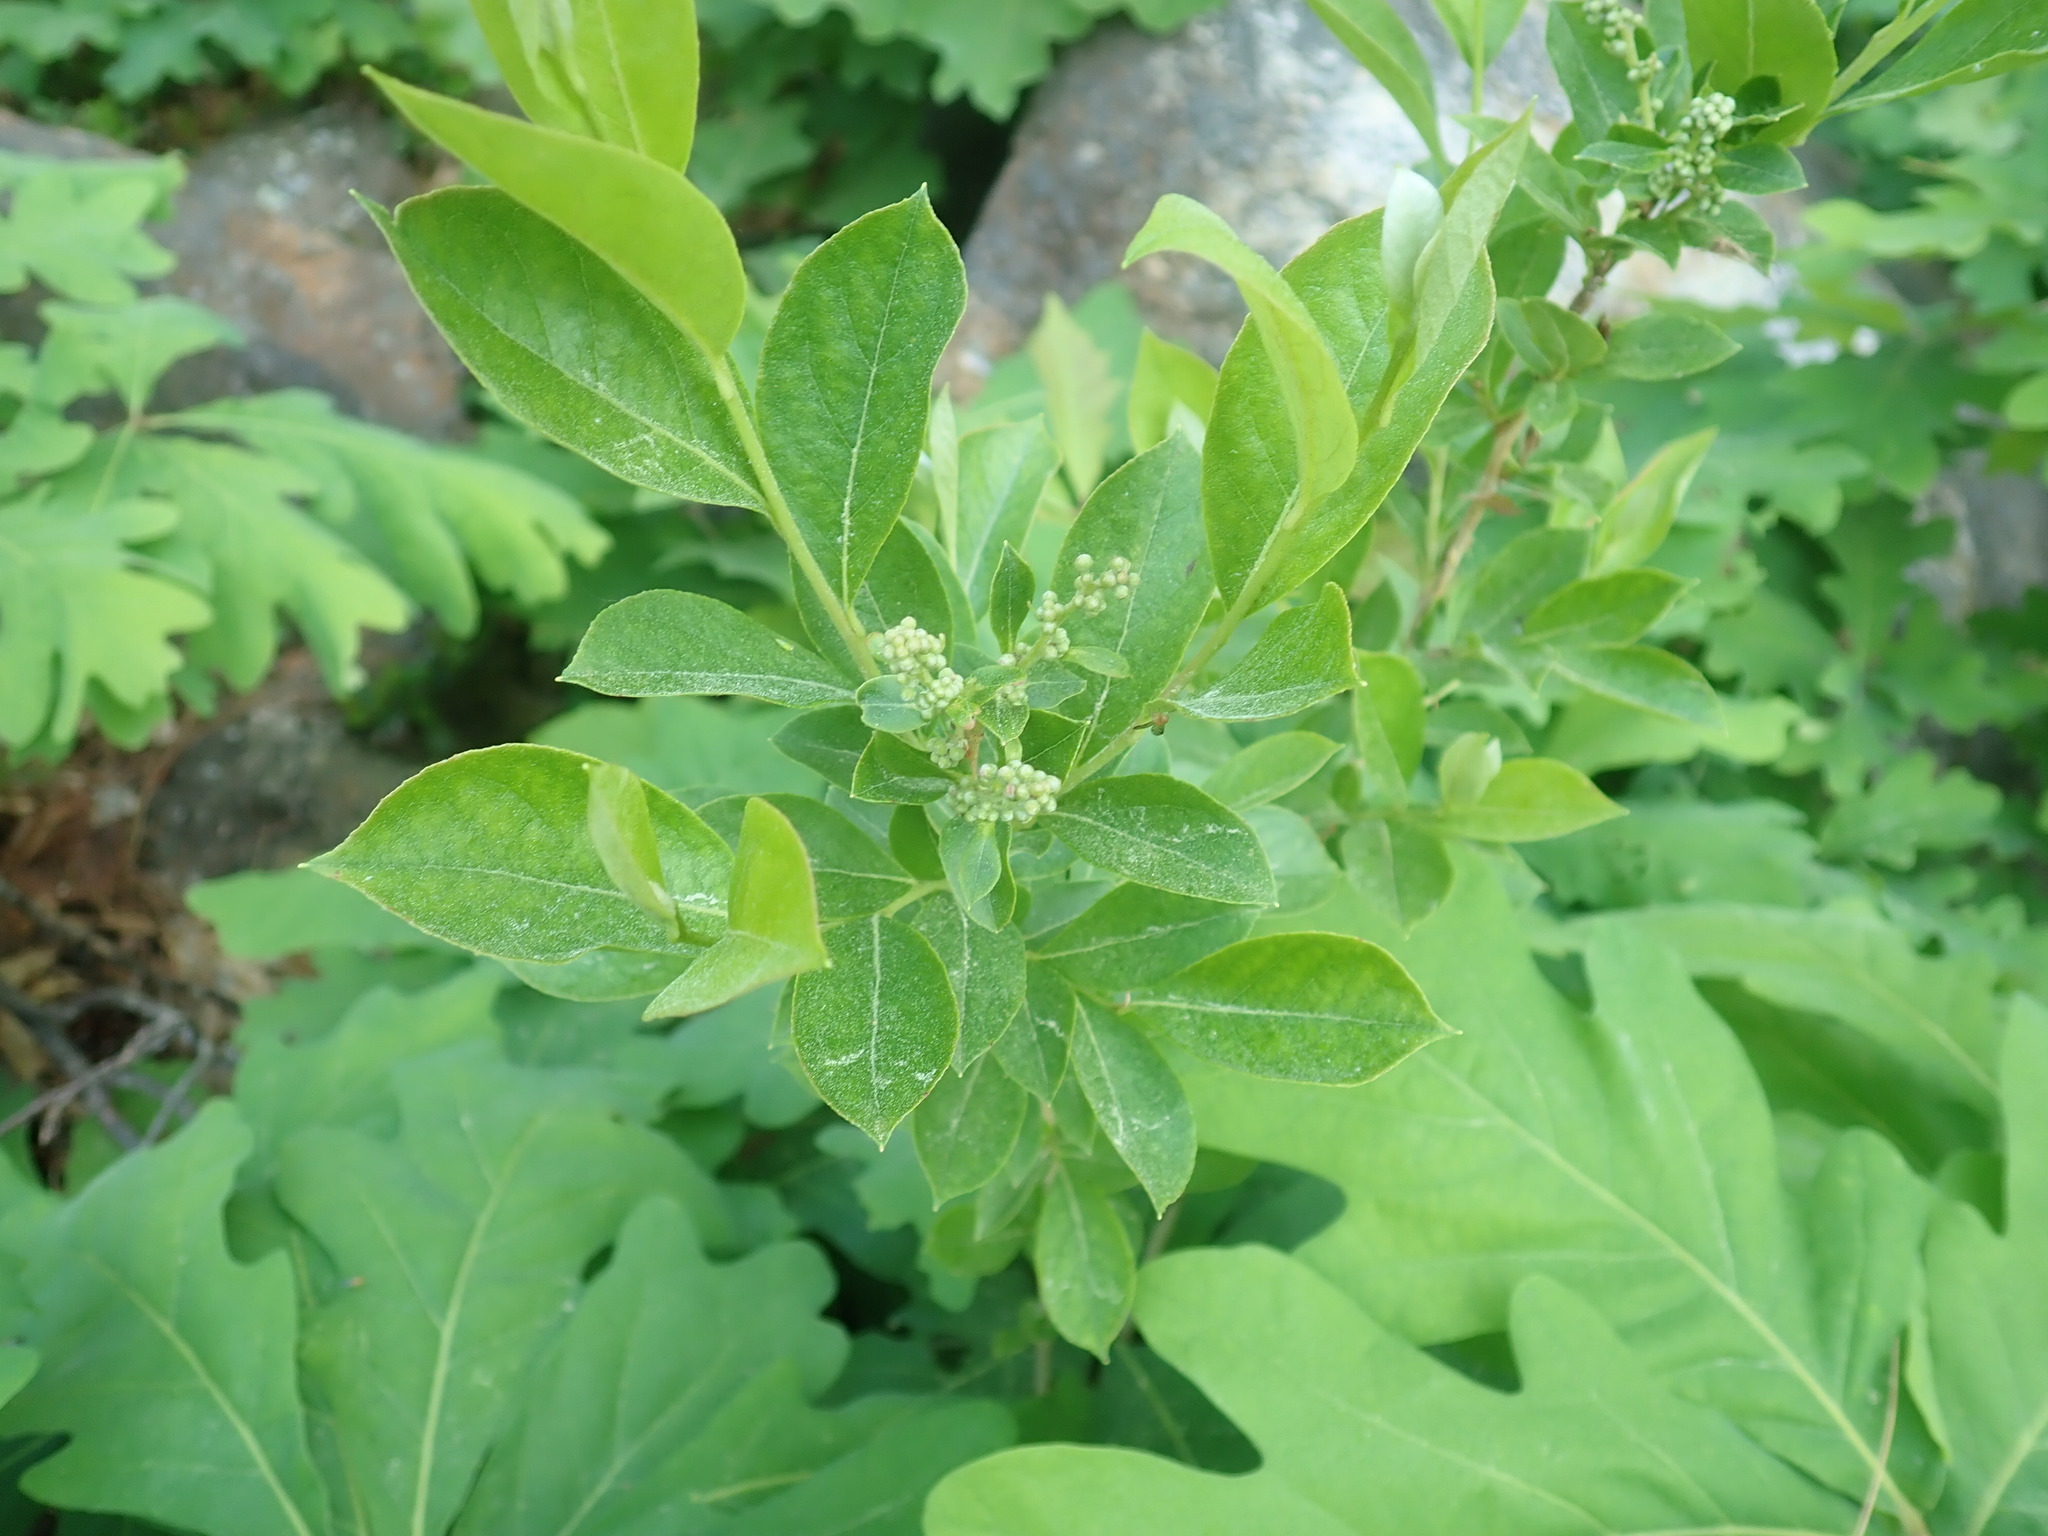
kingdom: Plantae
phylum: Tracheophyta
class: Magnoliopsida
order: Ericales
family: Ericaceae
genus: Lyonia
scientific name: Lyonia ligustrina
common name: Maleberry
